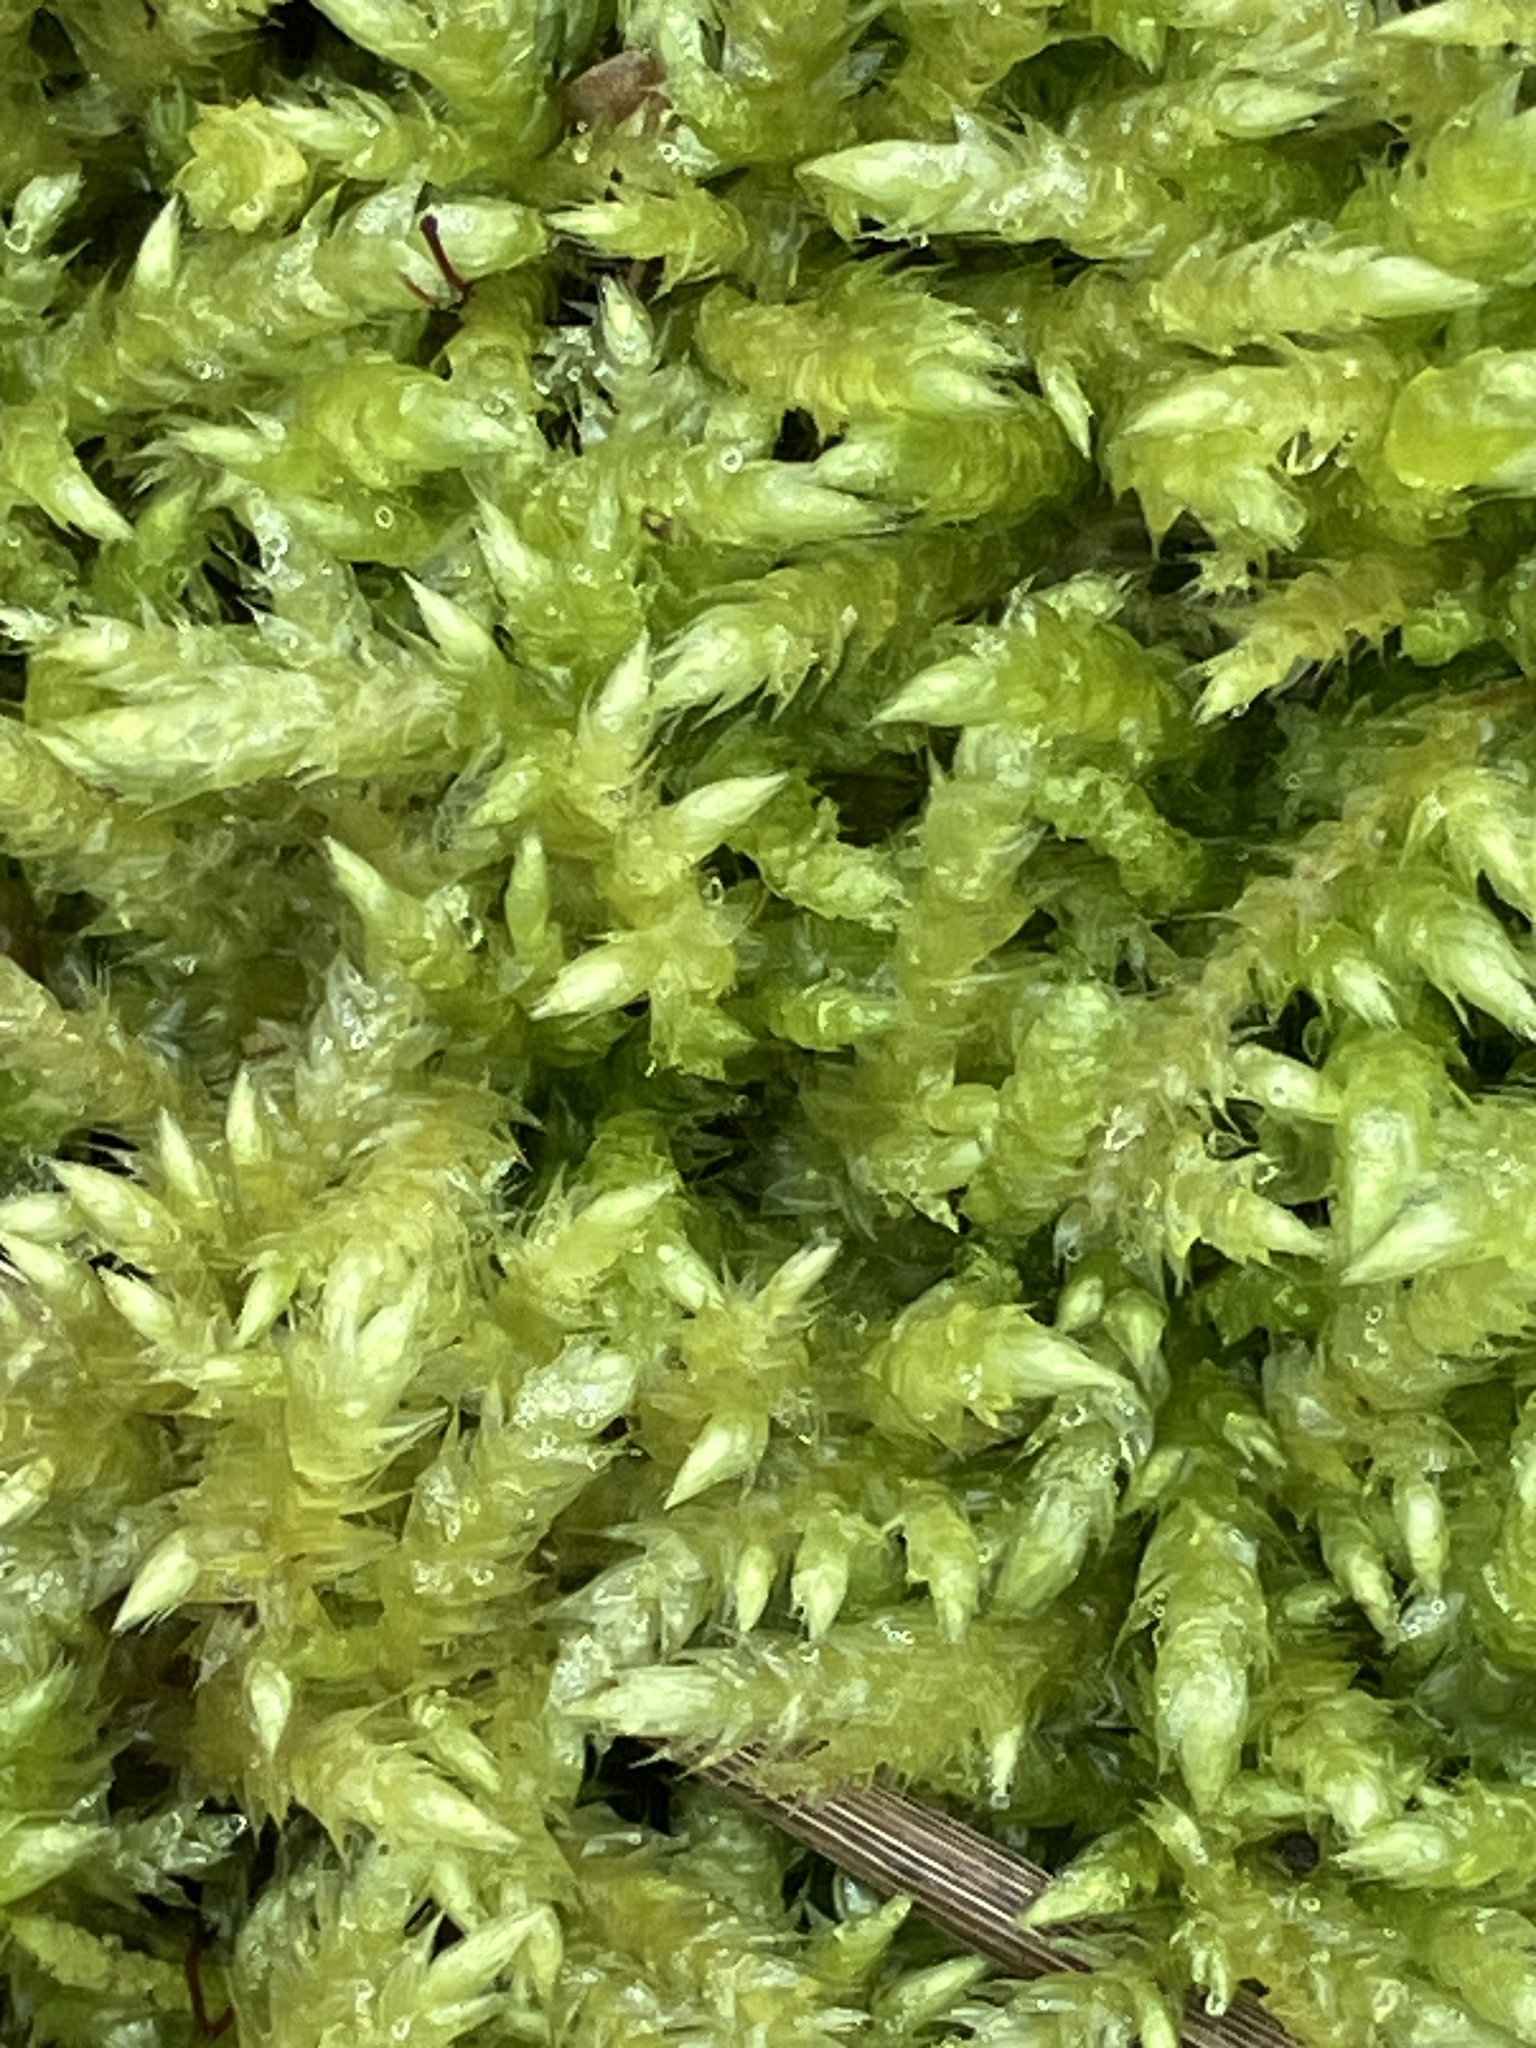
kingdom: Plantae
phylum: Bryophyta
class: Bryopsida
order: Hypnales
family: Brachytheciaceae
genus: Brachythecium
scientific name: Brachythecium rutabulum
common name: Rough-stalked feather-moss
